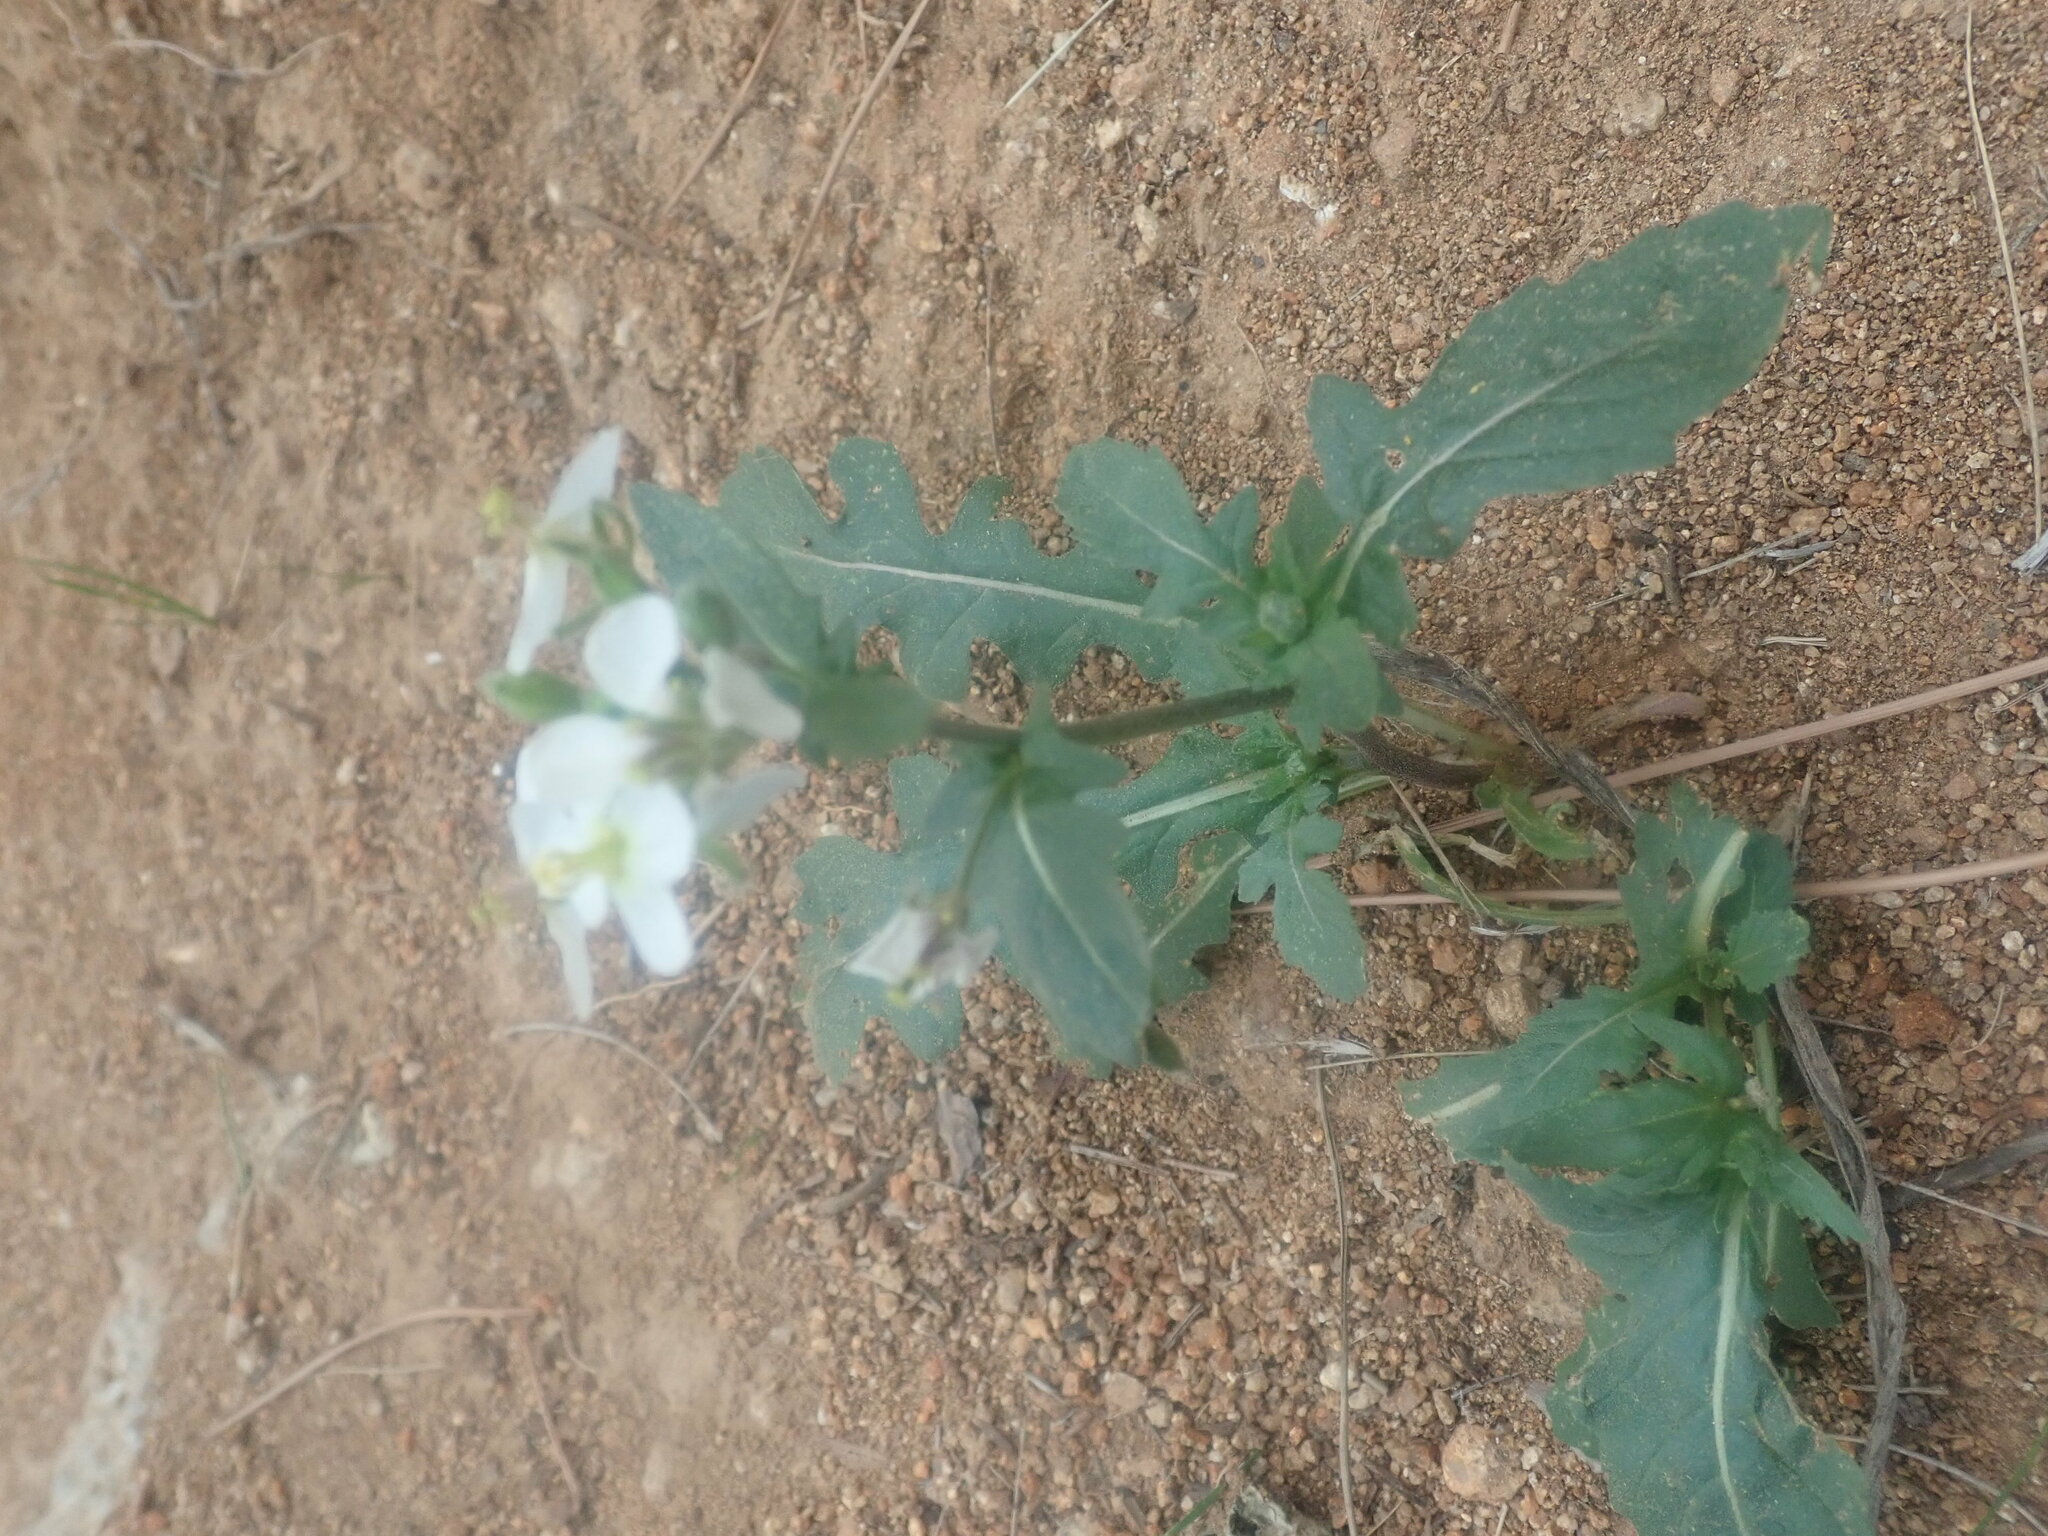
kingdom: Plantae
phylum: Tracheophyta
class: Magnoliopsida
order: Brassicales
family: Brassicaceae
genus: Diplotaxis
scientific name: Diplotaxis erucoides
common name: White rocket
